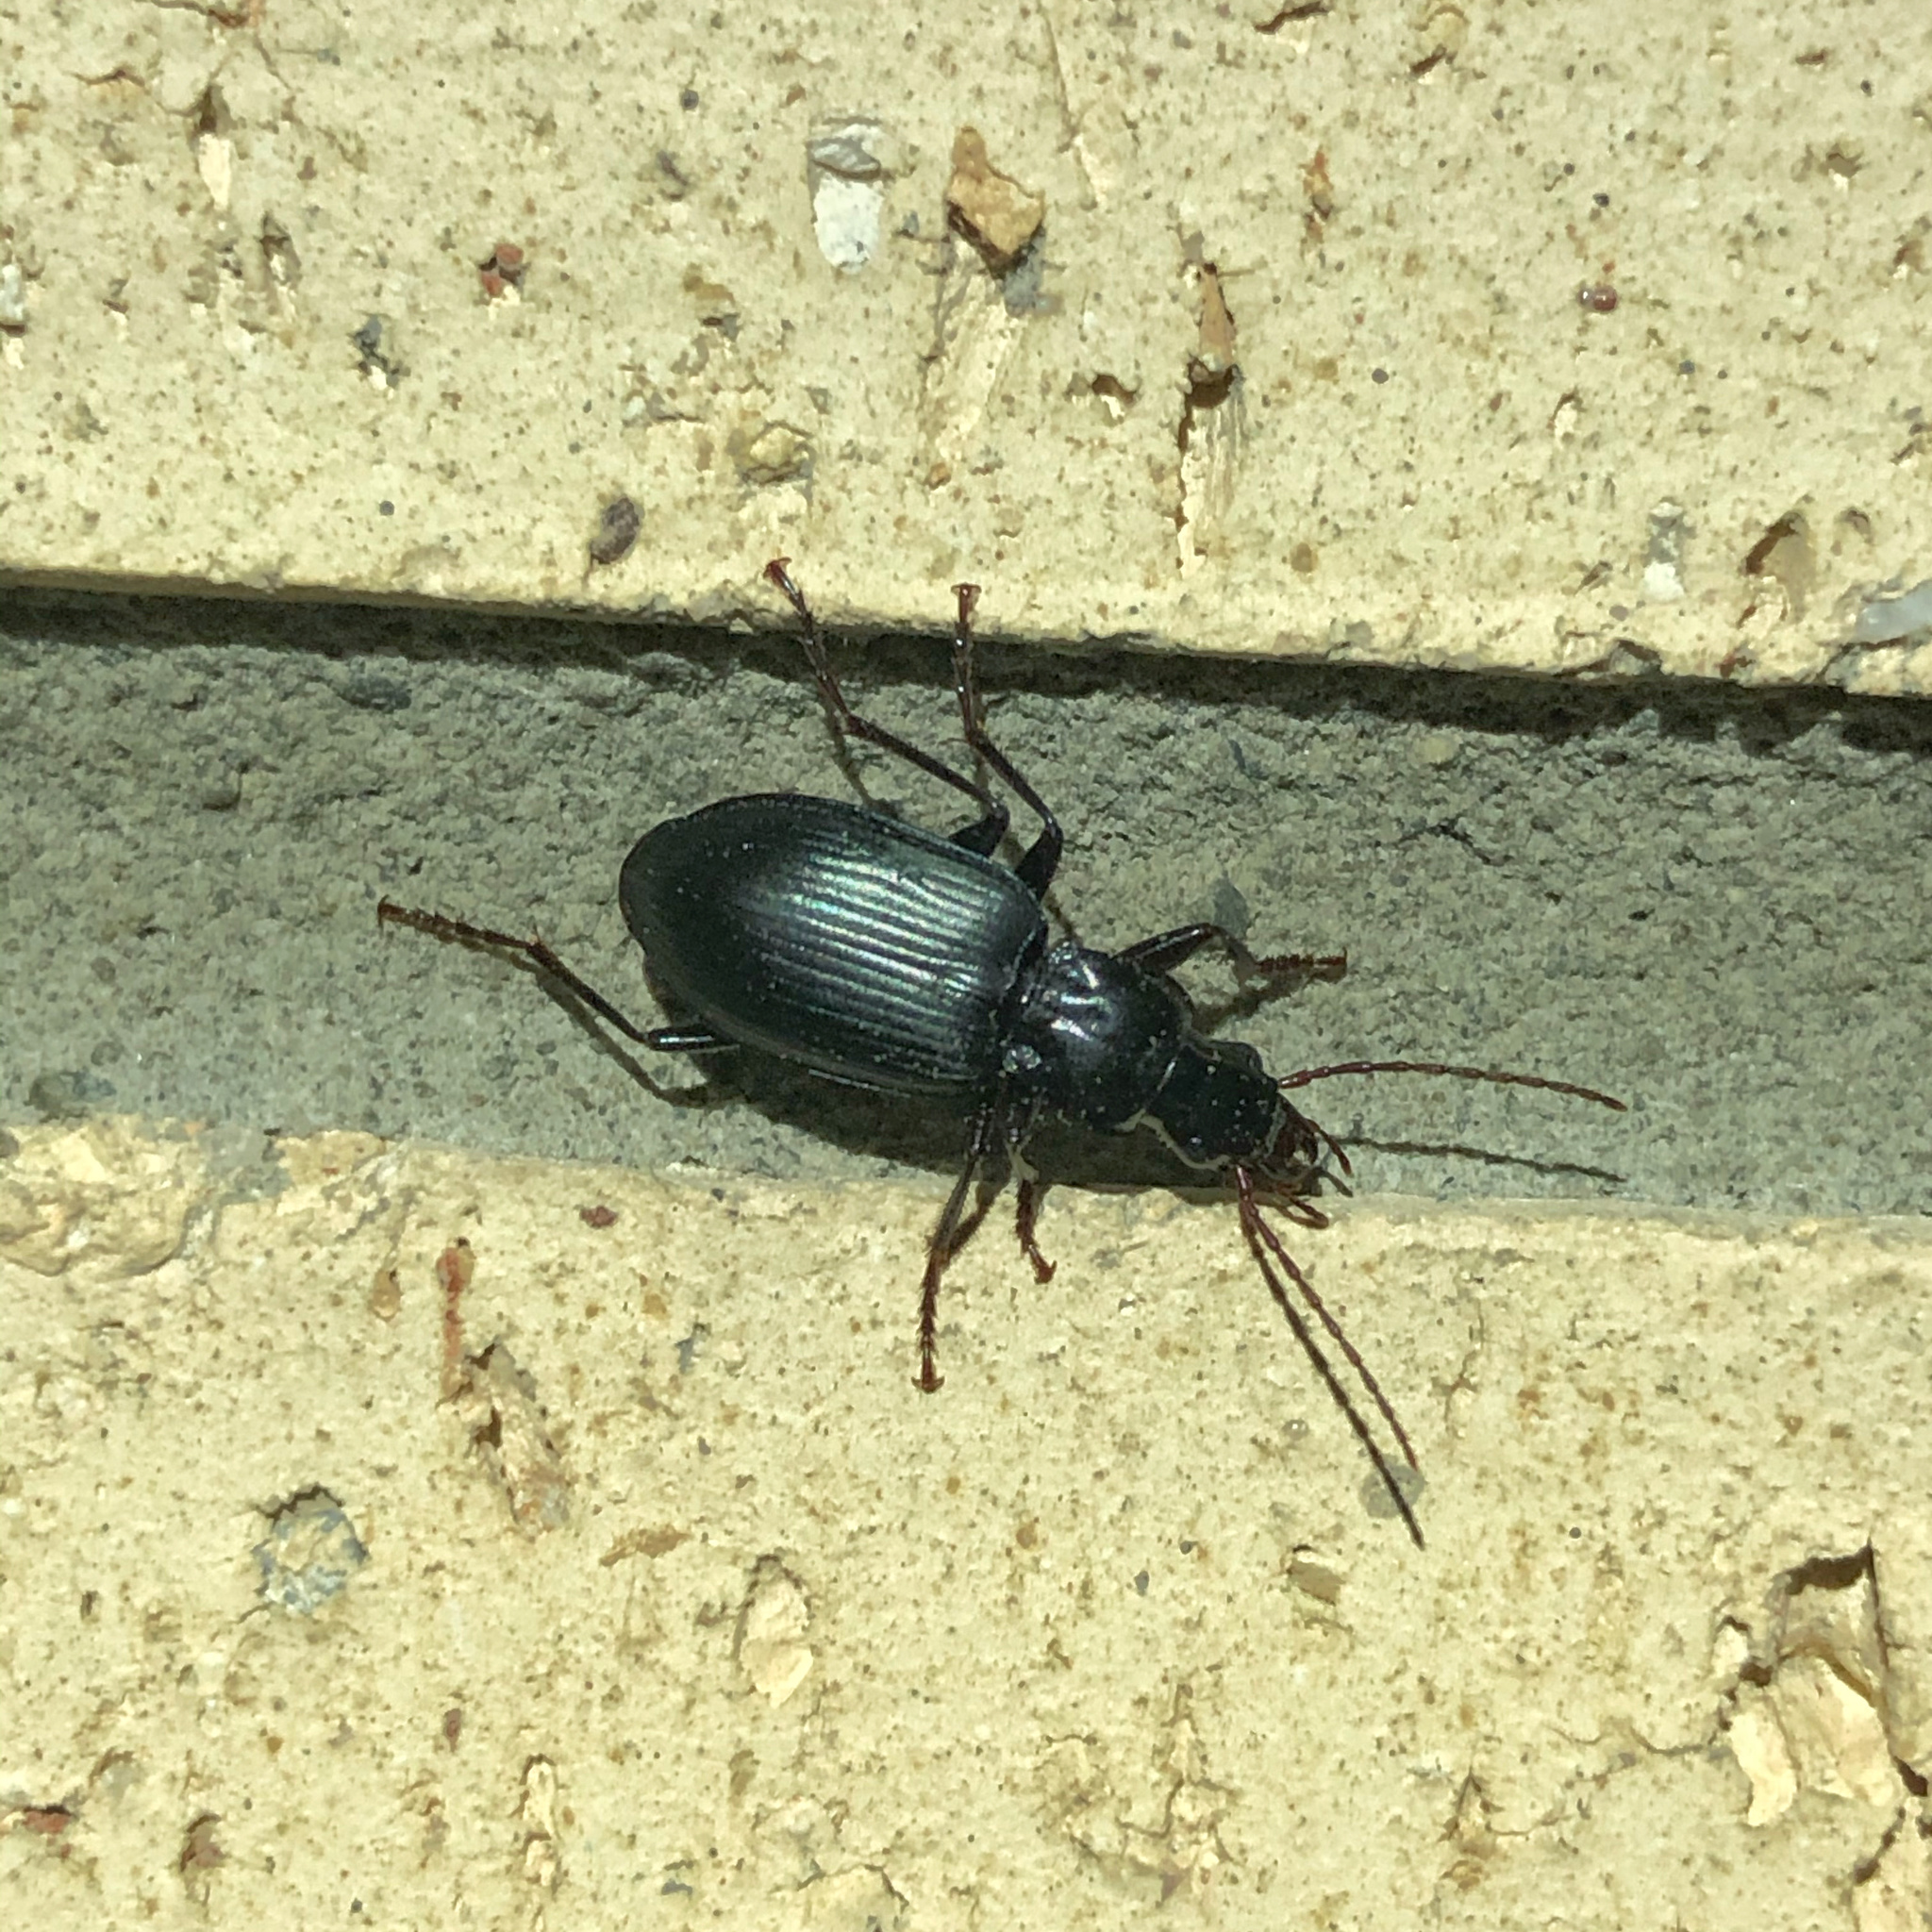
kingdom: Animalia
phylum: Arthropoda
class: Insecta
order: Coleoptera
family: Carabidae
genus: Laemostenus
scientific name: Laemostenus complanatus
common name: Cosmopolitan ground beetle
